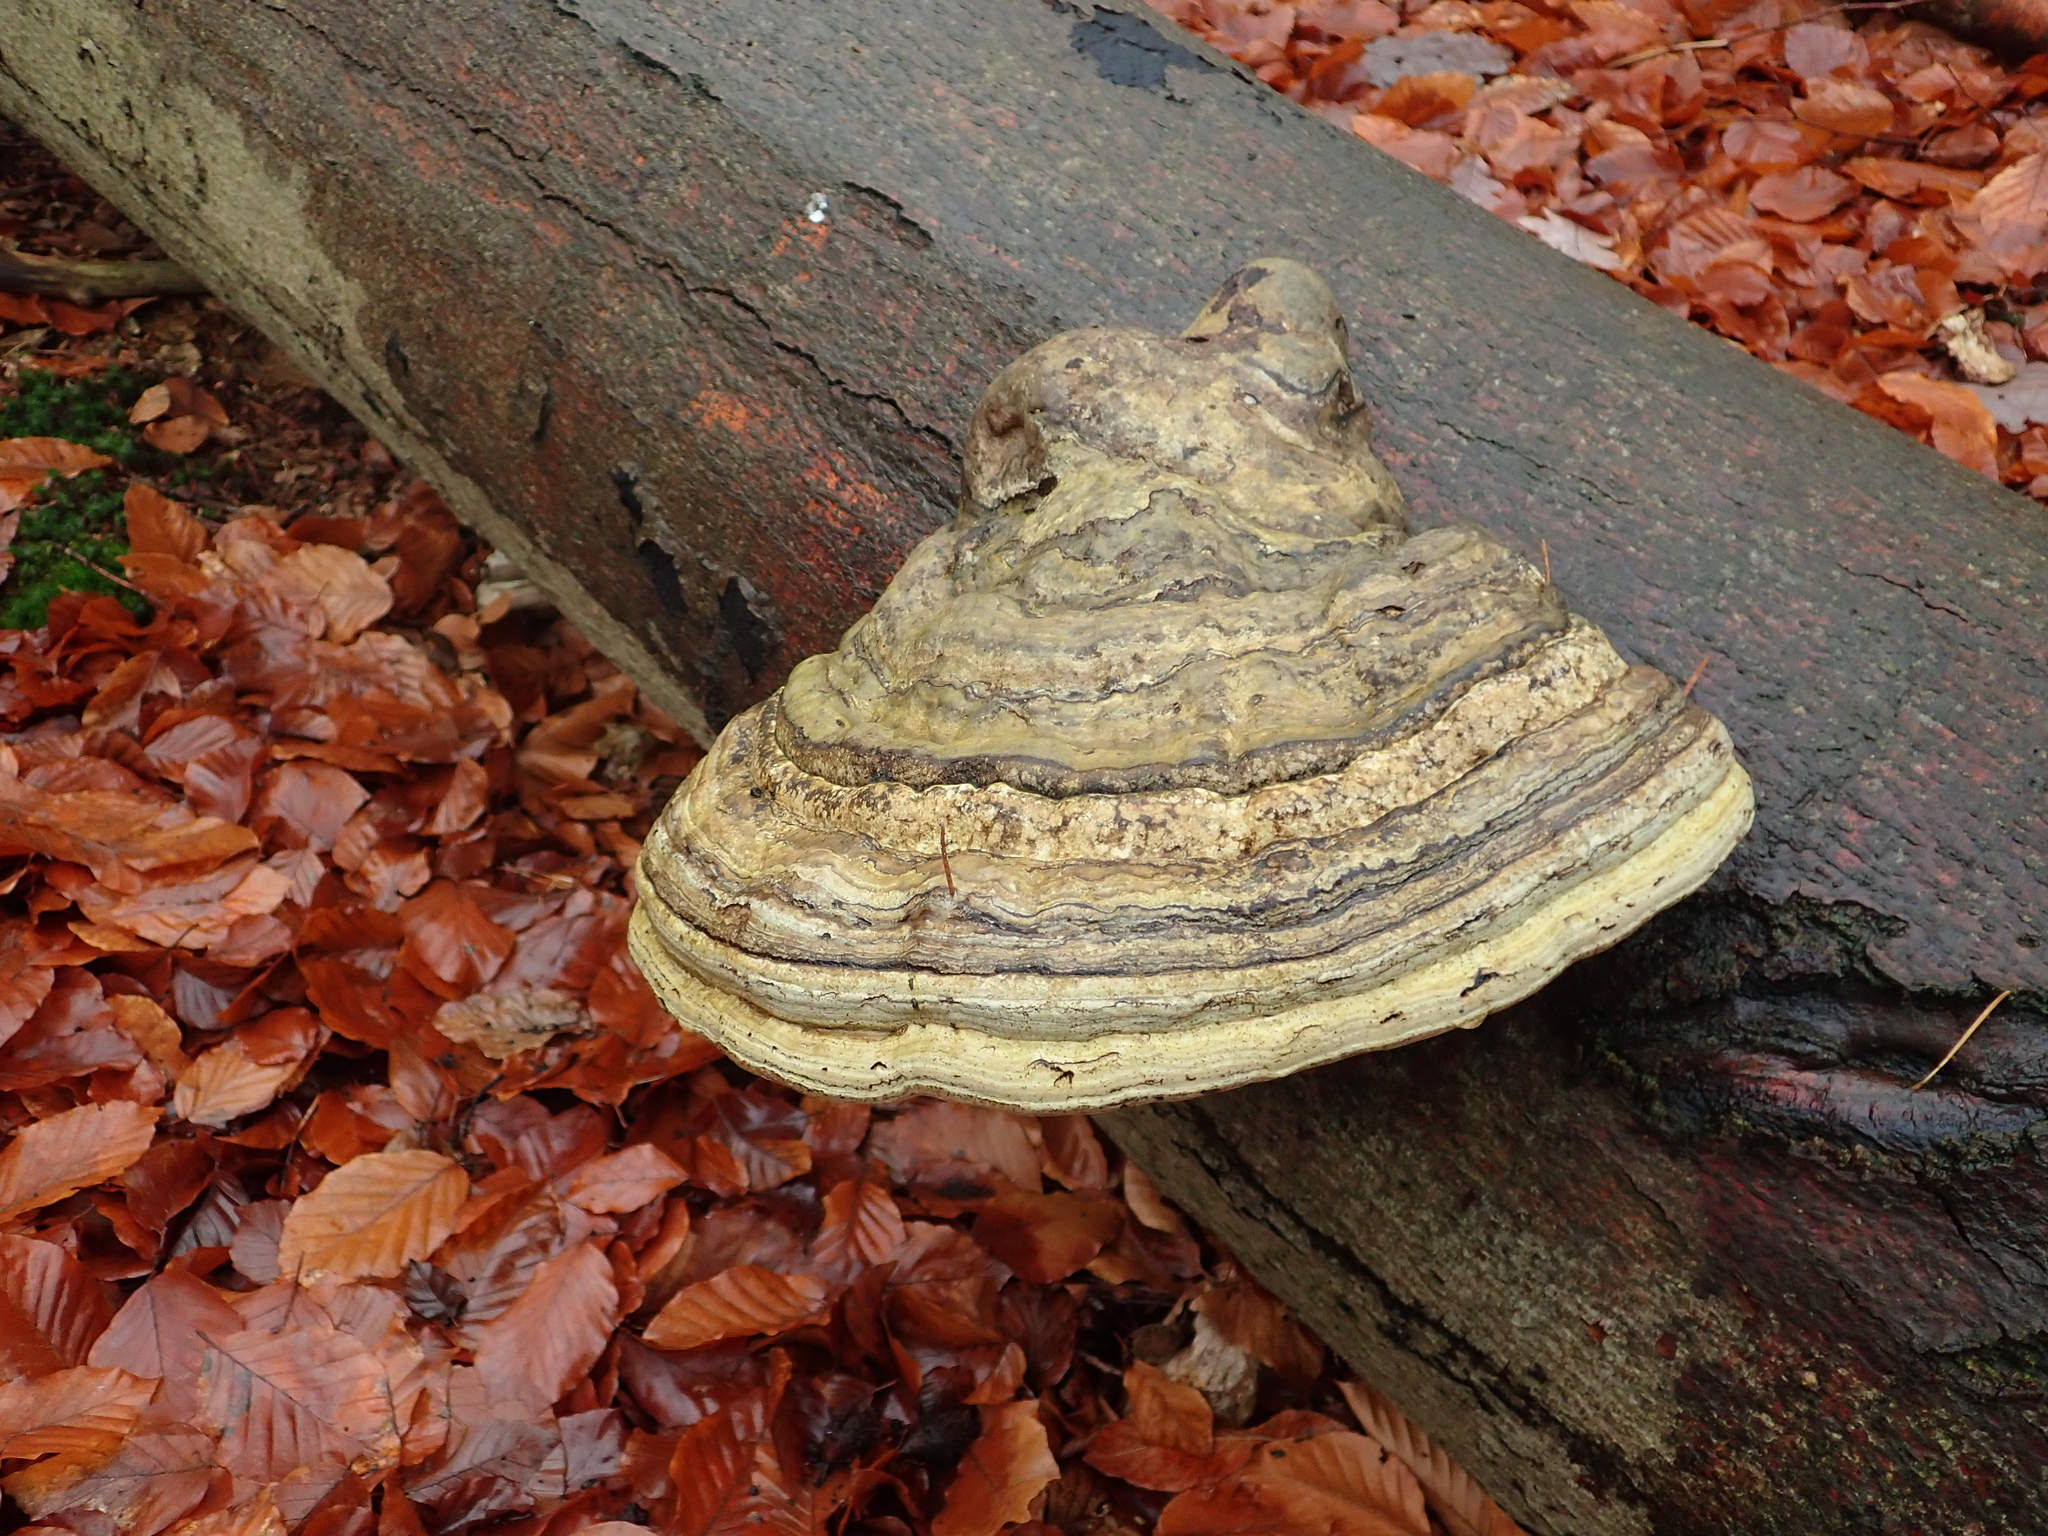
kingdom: Fungi
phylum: Basidiomycota
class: Agaricomycetes
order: Polyporales
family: Polyporaceae
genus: Fomes
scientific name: Fomes fomentarius
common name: Hoof fungus
